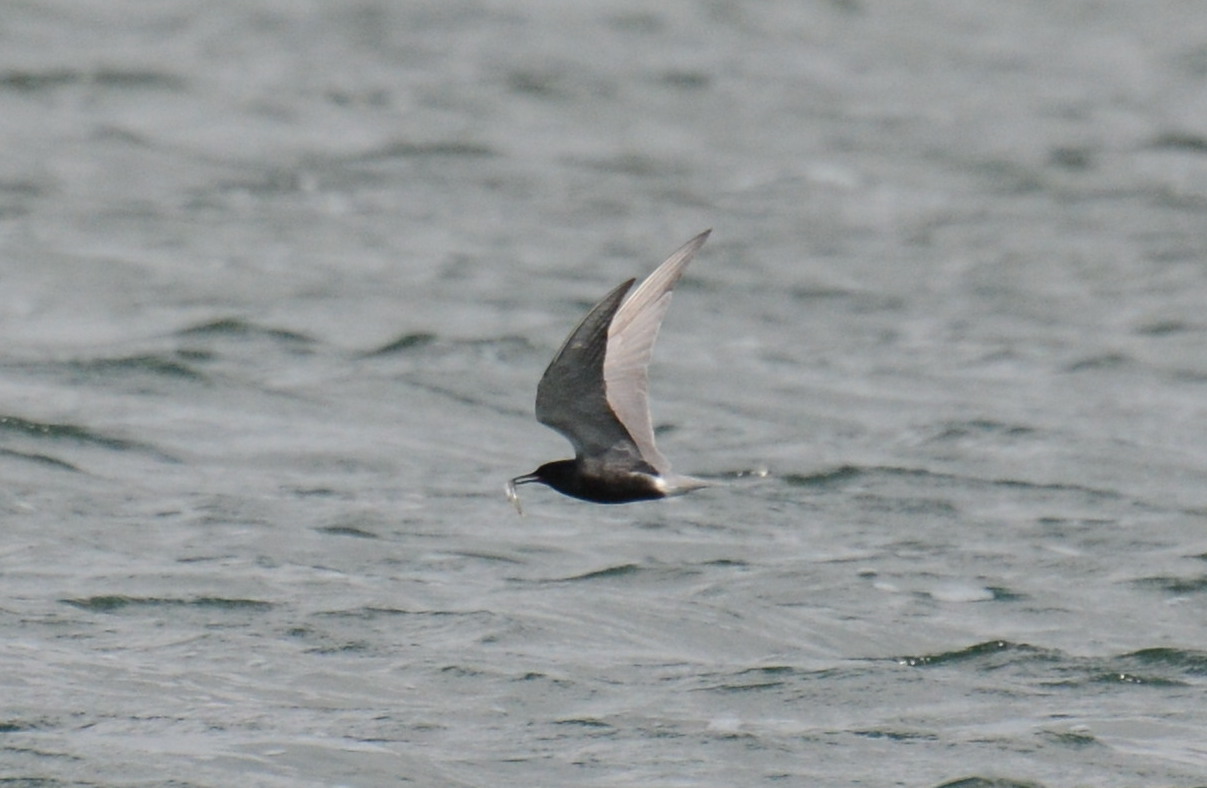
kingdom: Animalia
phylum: Chordata
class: Aves
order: Charadriiformes
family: Laridae
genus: Chlidonias
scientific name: Chlidonias niger
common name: Black tern
